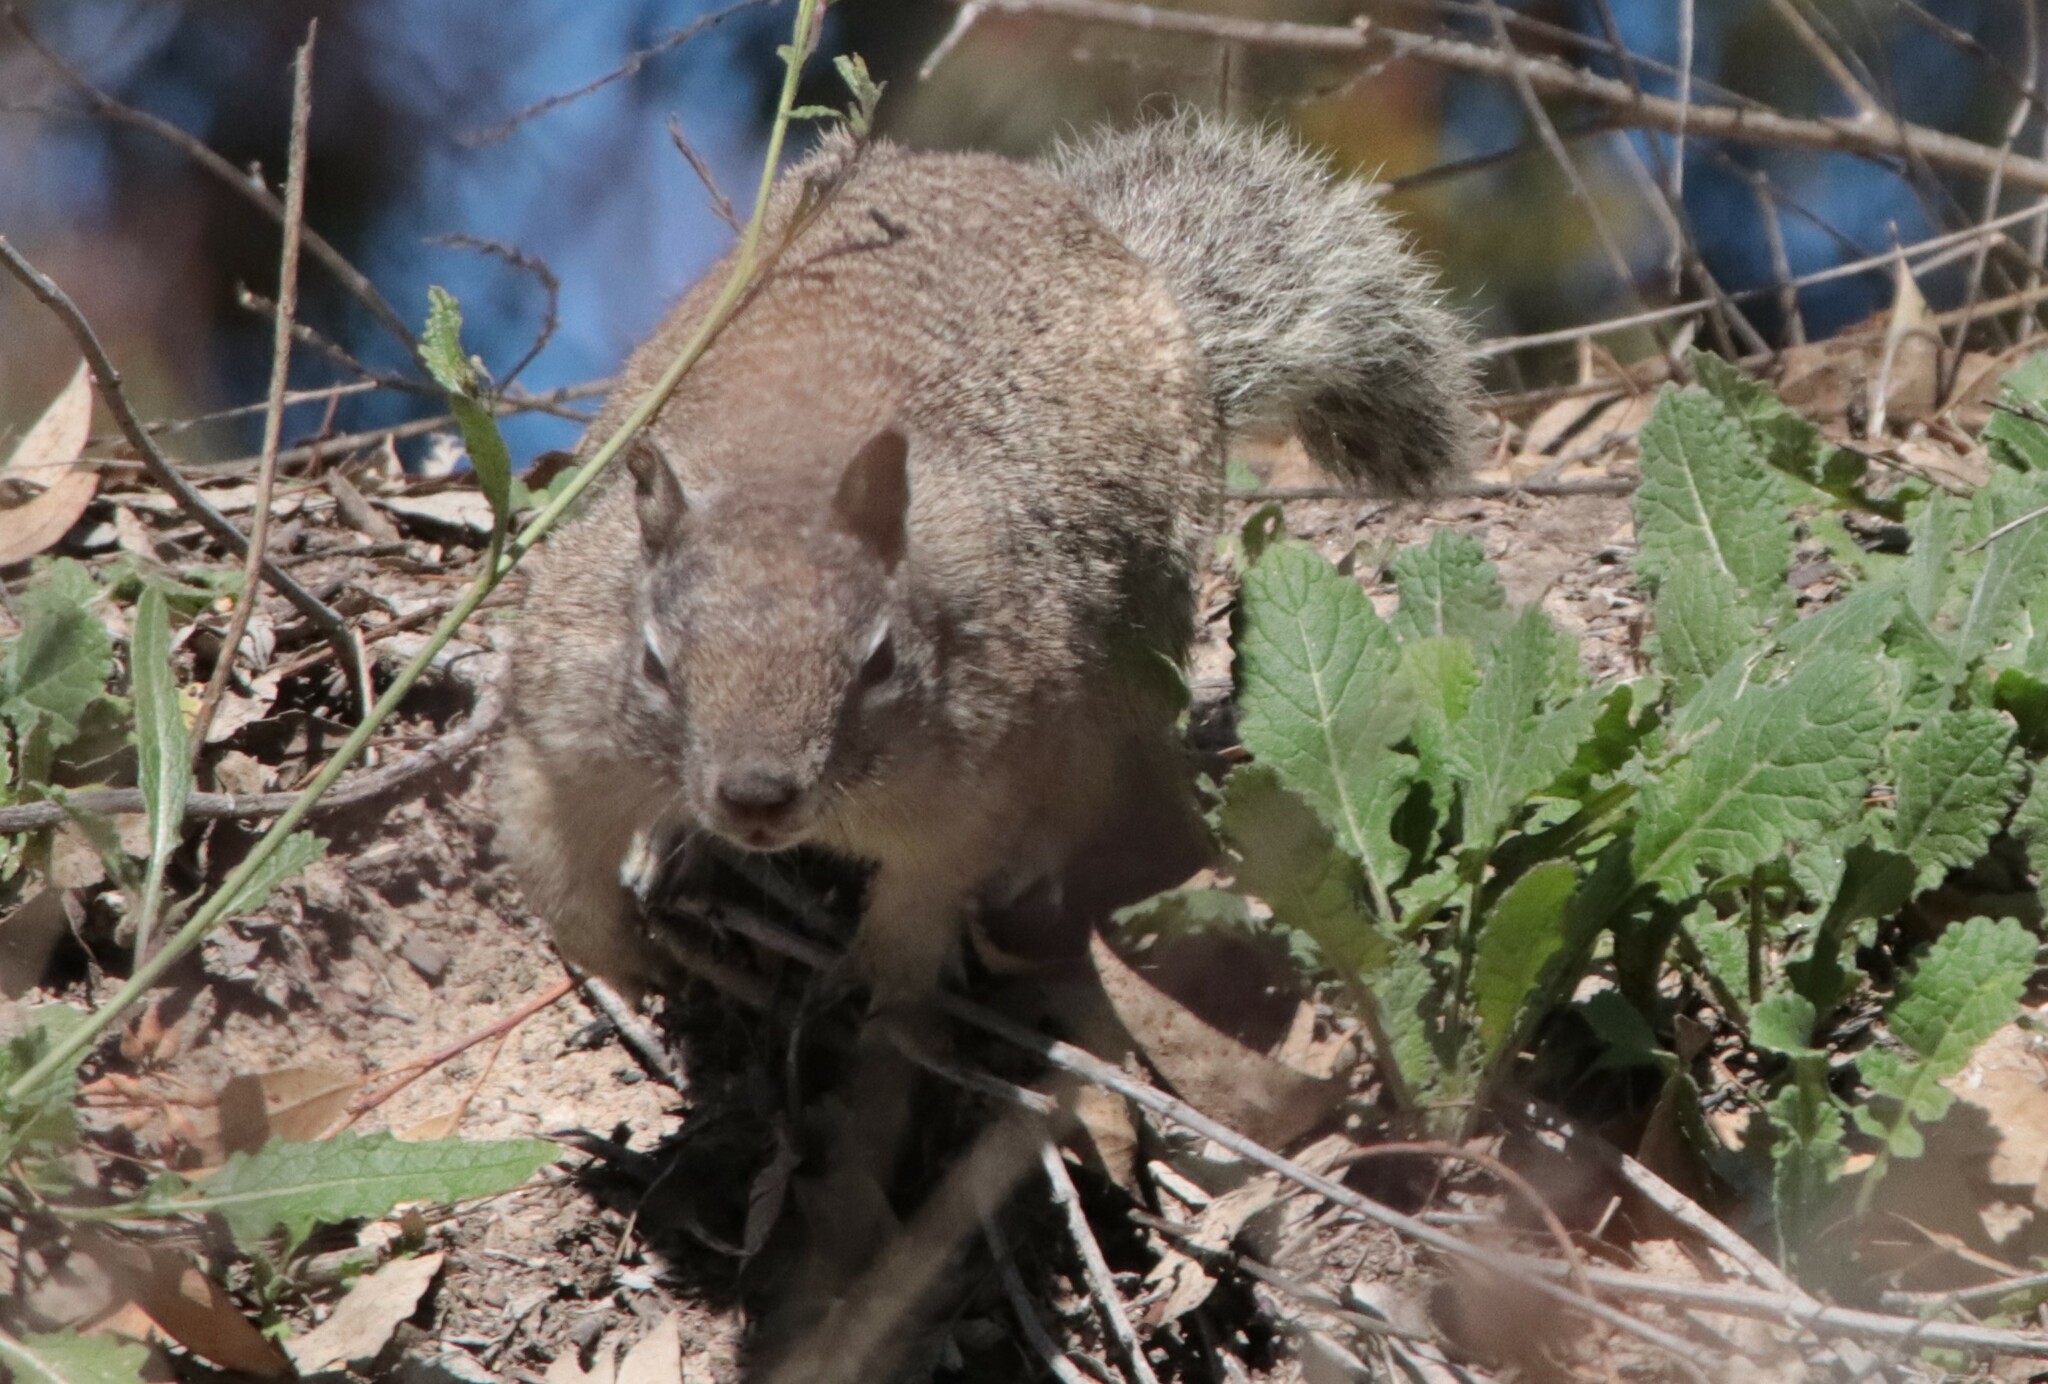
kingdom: Animalia
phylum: Chordata
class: Mammalia
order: Rodentia
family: Sciuridae
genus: Otospermophilus
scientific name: Otospermophilus beecheyi
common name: California ground squirrel
